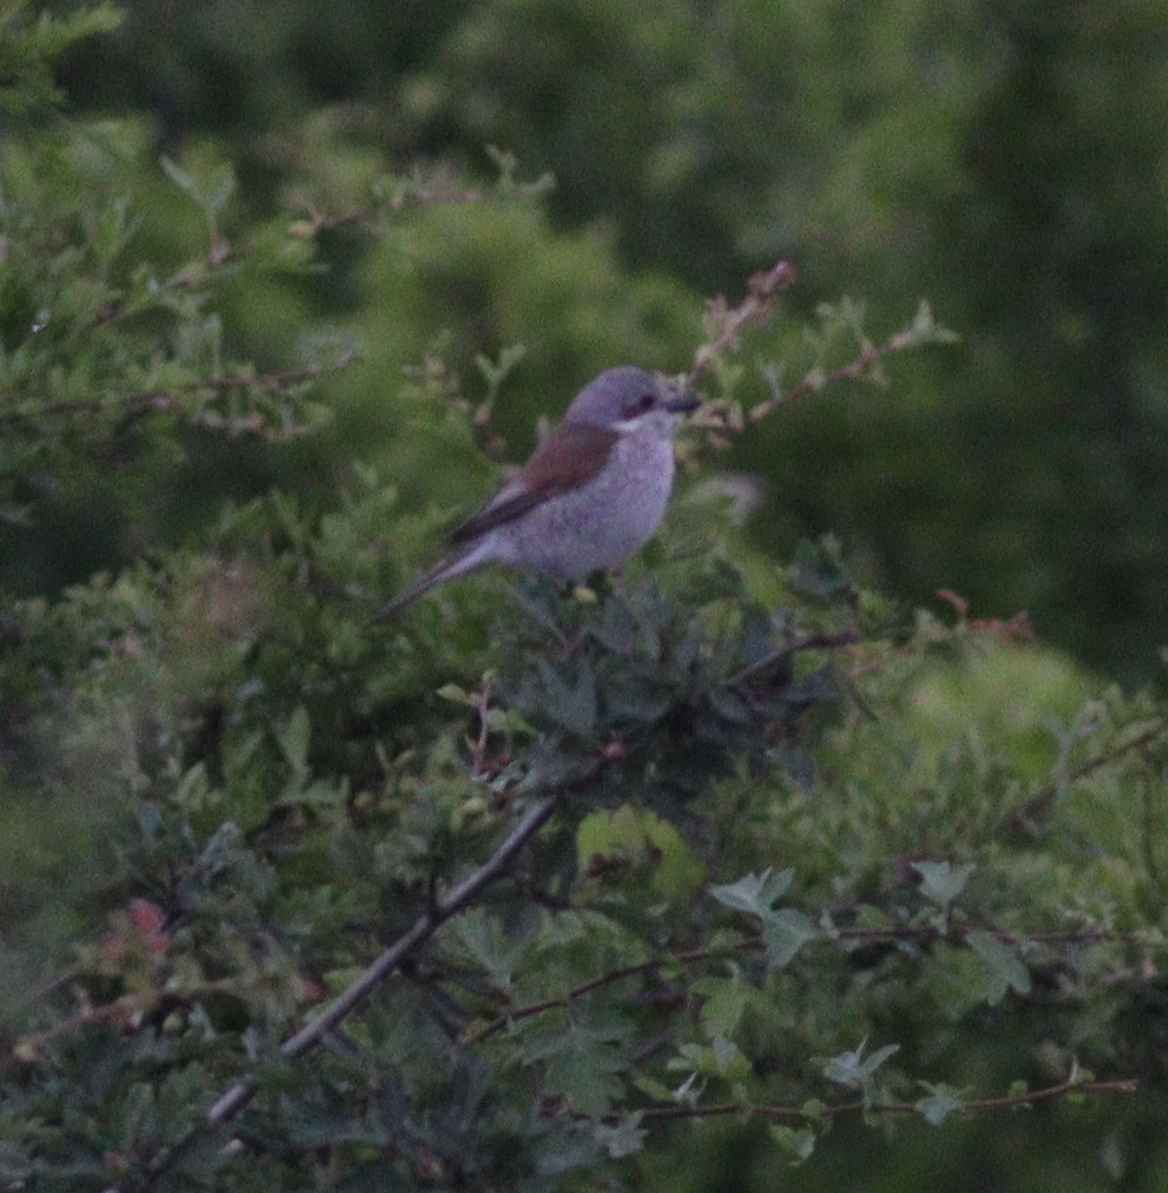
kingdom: Animalia
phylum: Chordata
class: Aves
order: Passeriformes
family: Laniidae
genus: Lanius
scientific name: Lanius collurio
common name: Red-backed shrike
